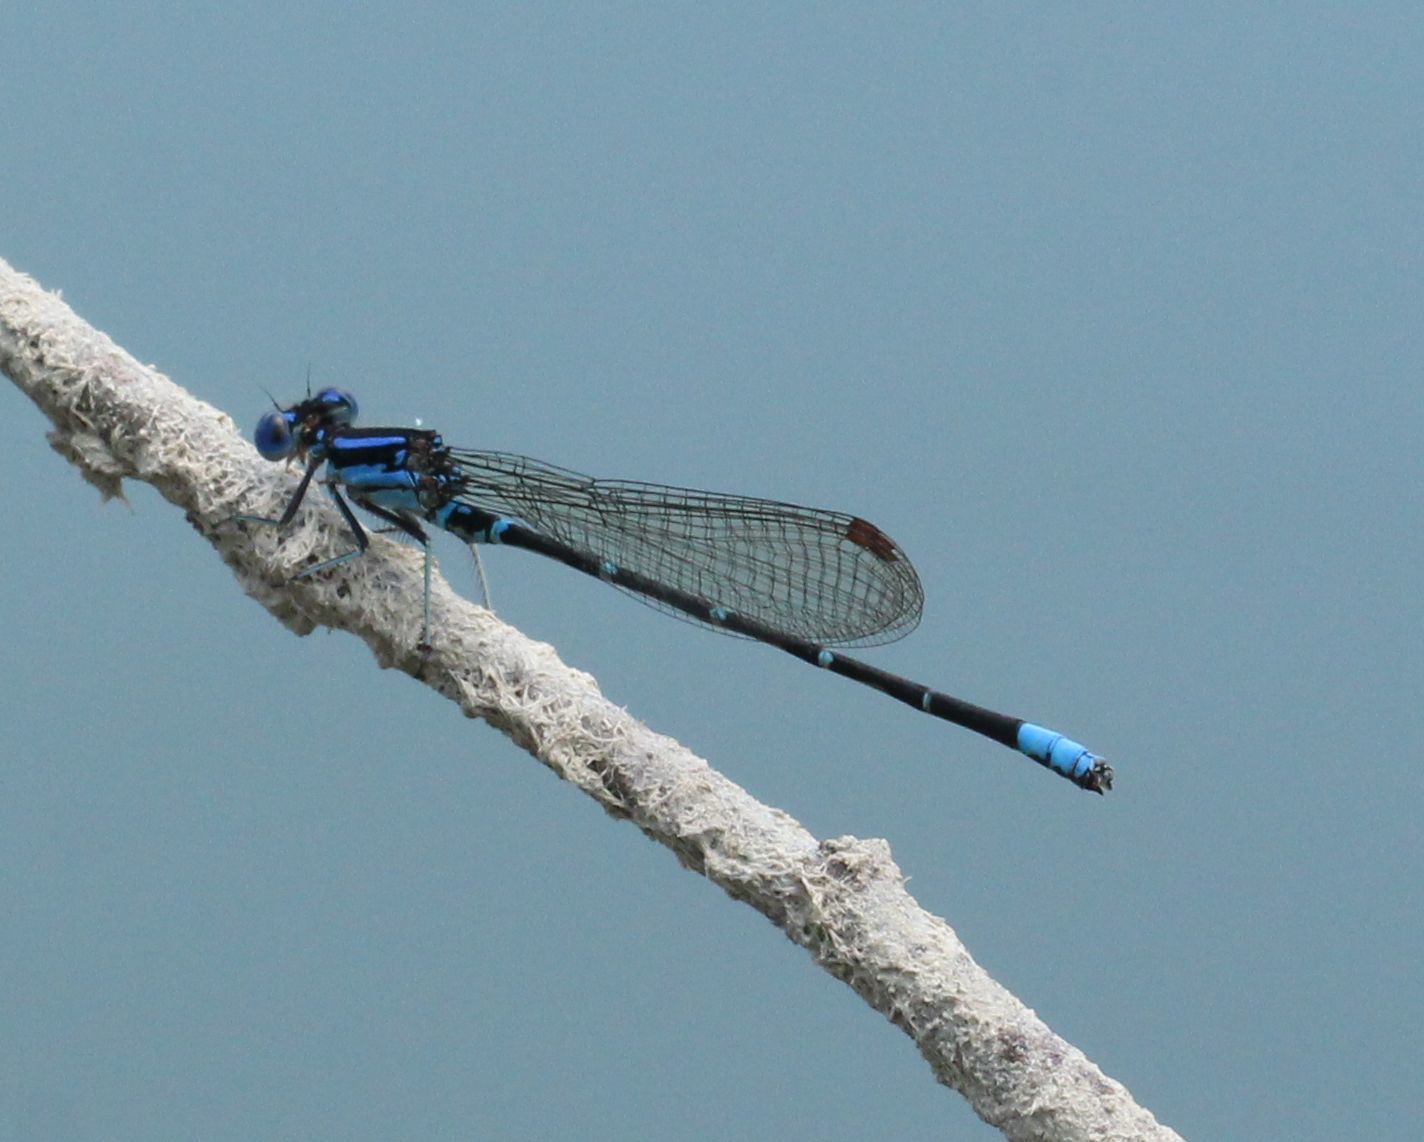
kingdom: Animalia
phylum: Arthropoda
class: Insecta
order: Odonata
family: Coenagrionidae
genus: Argia
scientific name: Argia sedula
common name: Blue-ringed dancer
